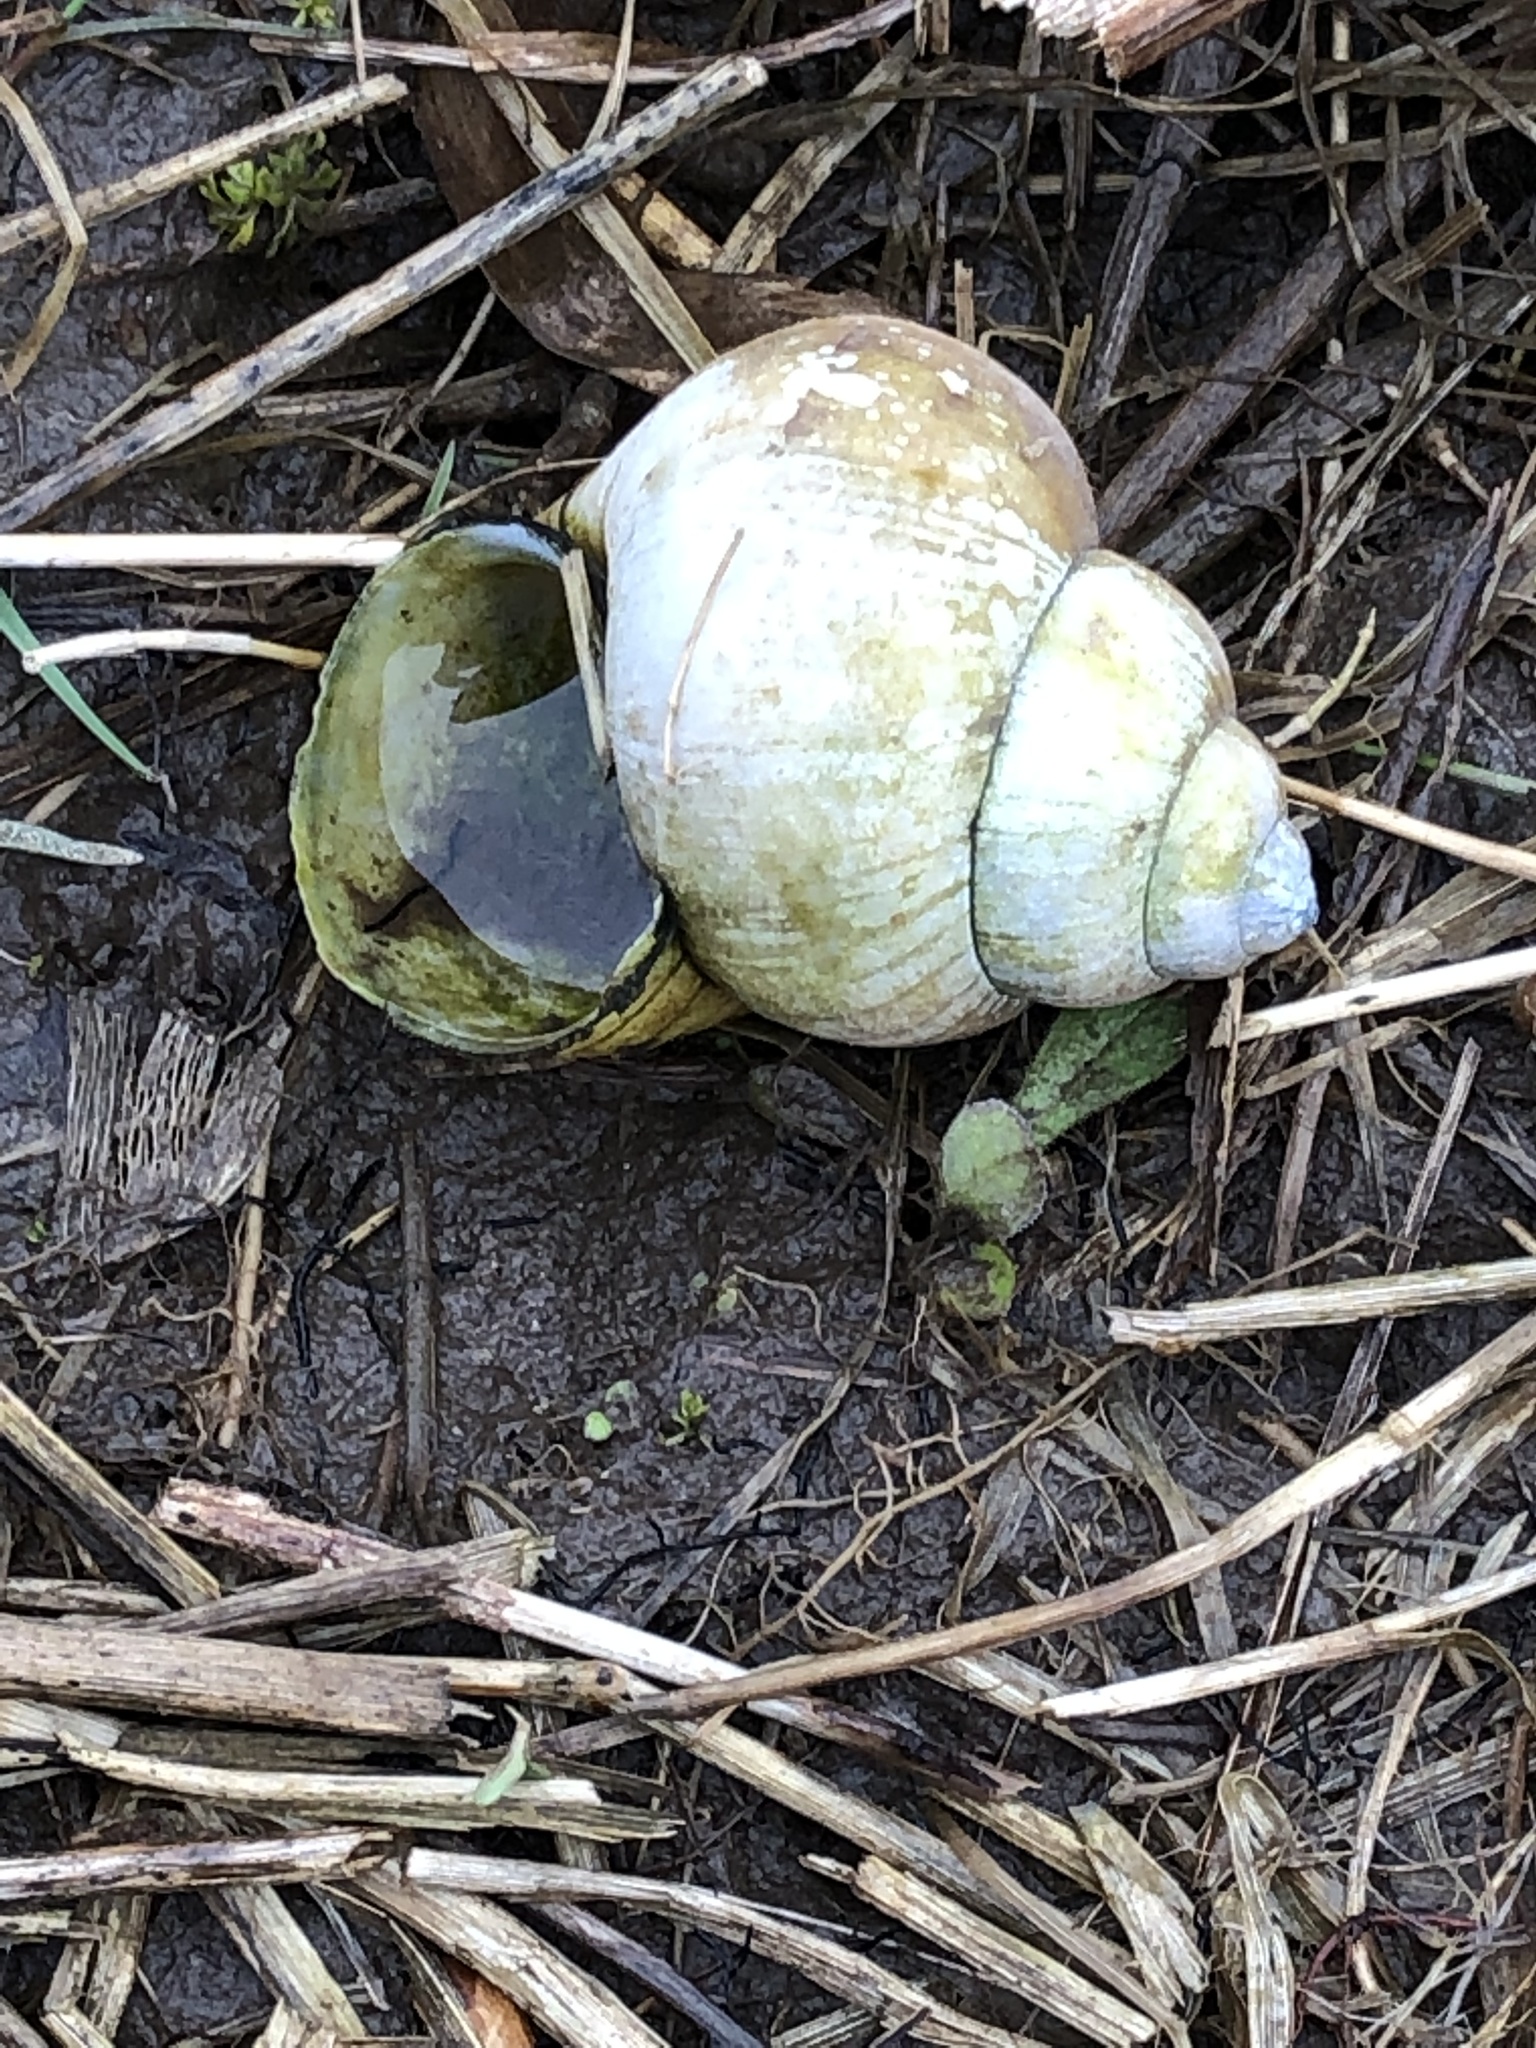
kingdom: Animalia
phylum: Mollusca
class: Gastropoda
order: Architaenioglossa
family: Viviparidae
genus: Cipangopaludina
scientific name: Cipangopaludina chinensis
